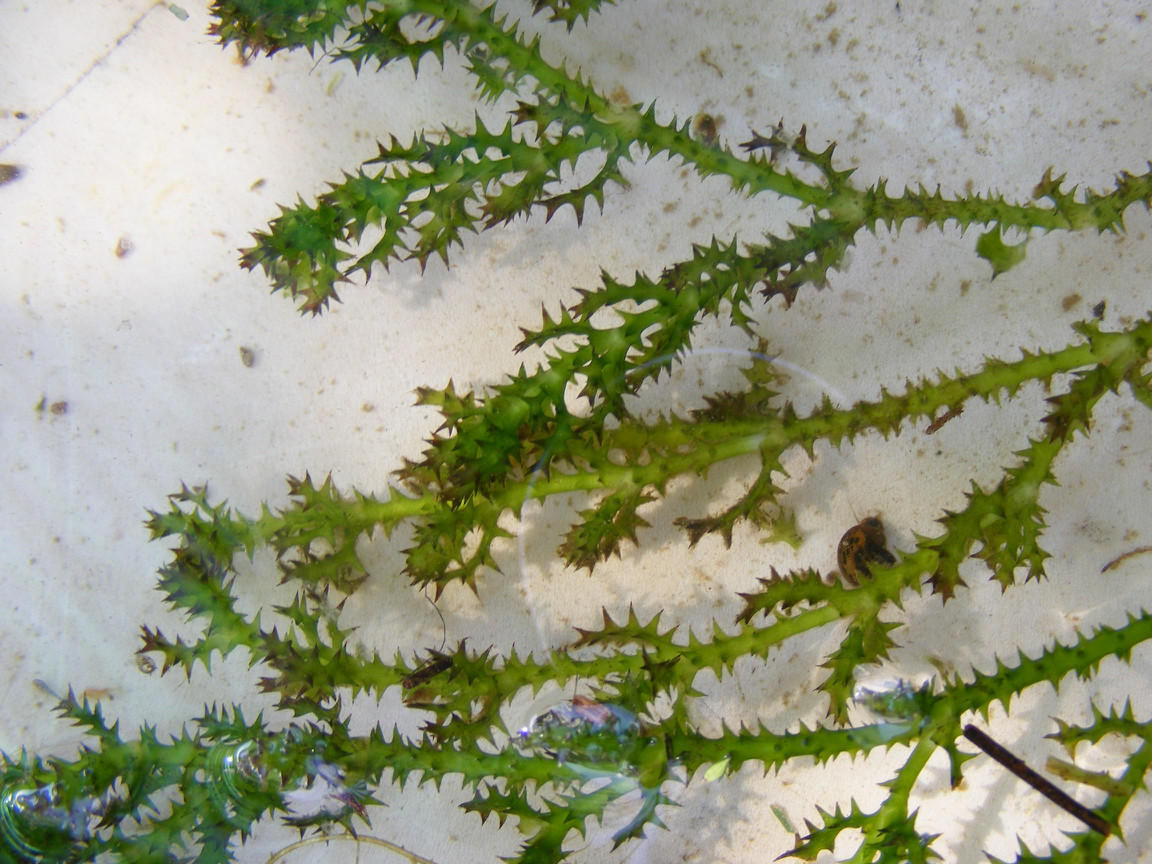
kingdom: Plantae
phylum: Tracheophyta
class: Liliopsida
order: Alismatales
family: Hydrocharitaceae
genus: Najas
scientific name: Najas marina
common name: Holly-leaved naiad
